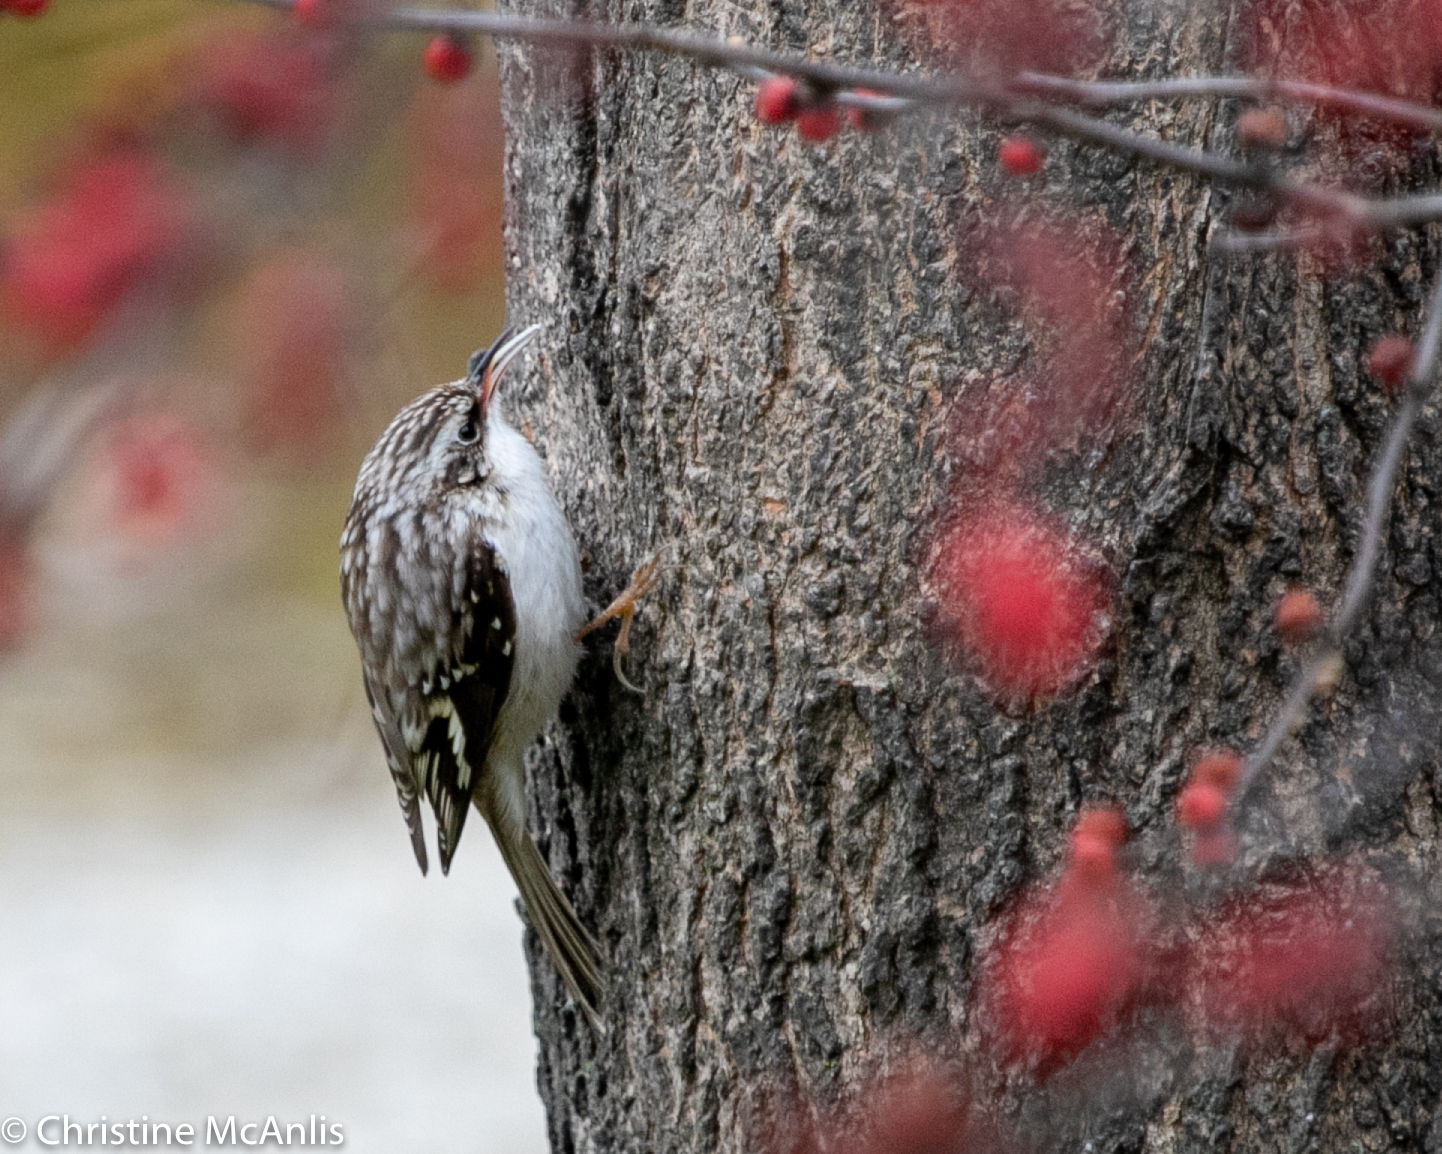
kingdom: Animalia
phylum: Chordata
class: Aves
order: Passeriformes
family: Certhiidae
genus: Certhia
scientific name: Certhia americana
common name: Brown creeper
